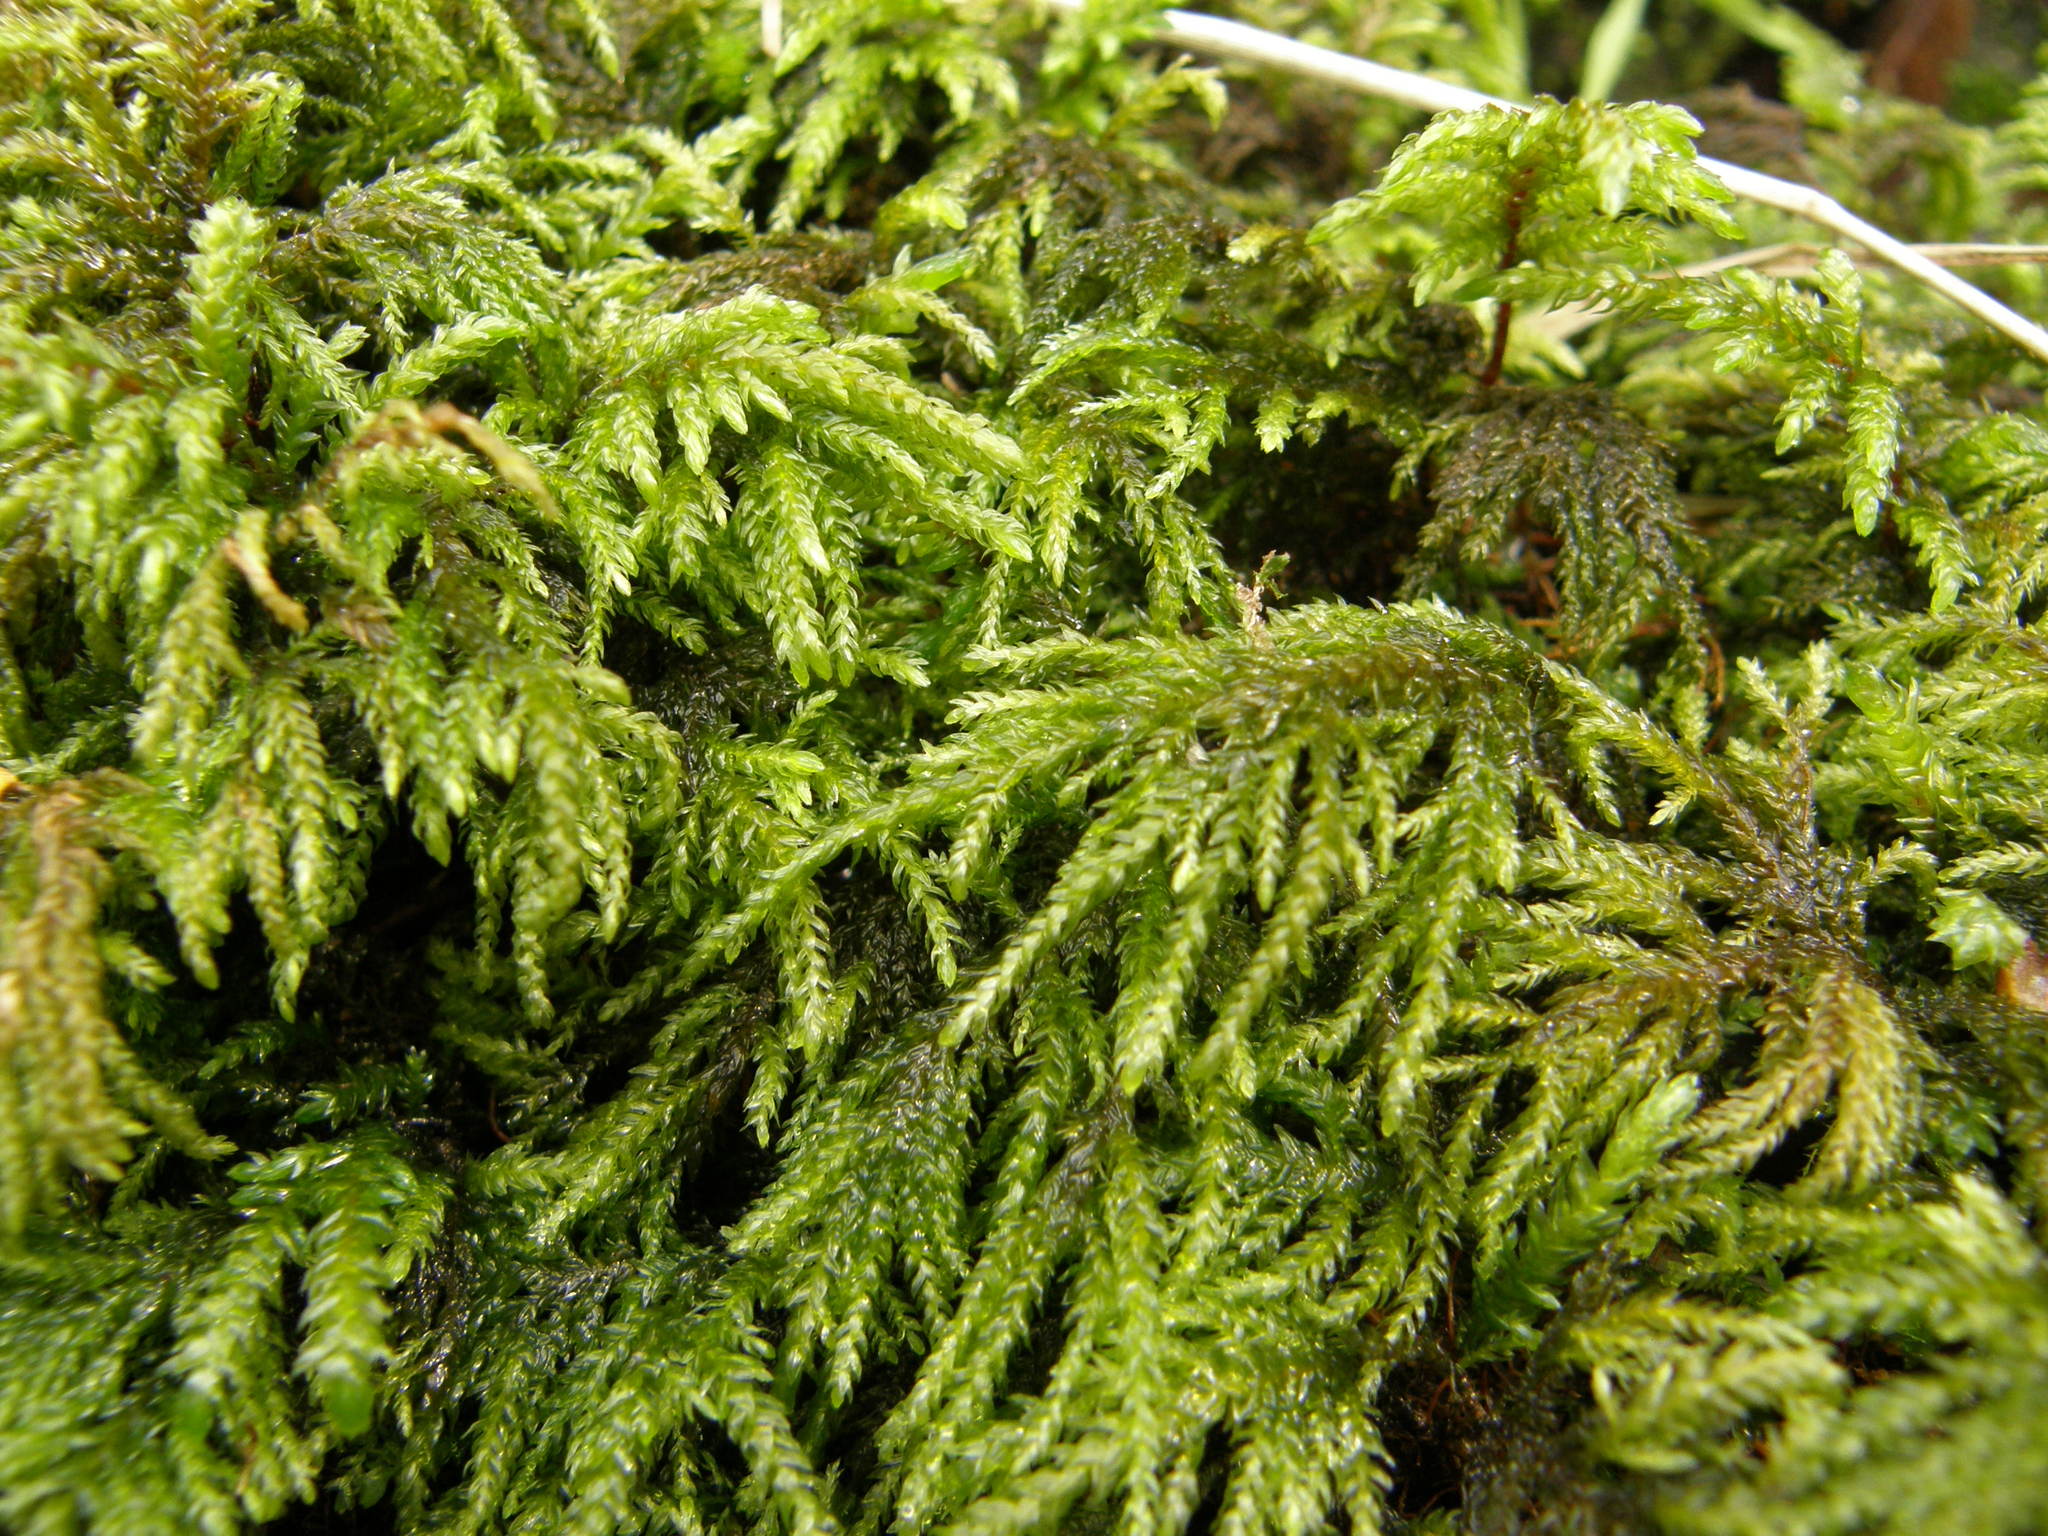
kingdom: Plantae
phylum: Bryophyta
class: Bryopsida
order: Hypnales
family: Neckeraceae
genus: Thamnobryum
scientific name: Thamnobryum alopecurum
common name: Fox-tail feather-moss
